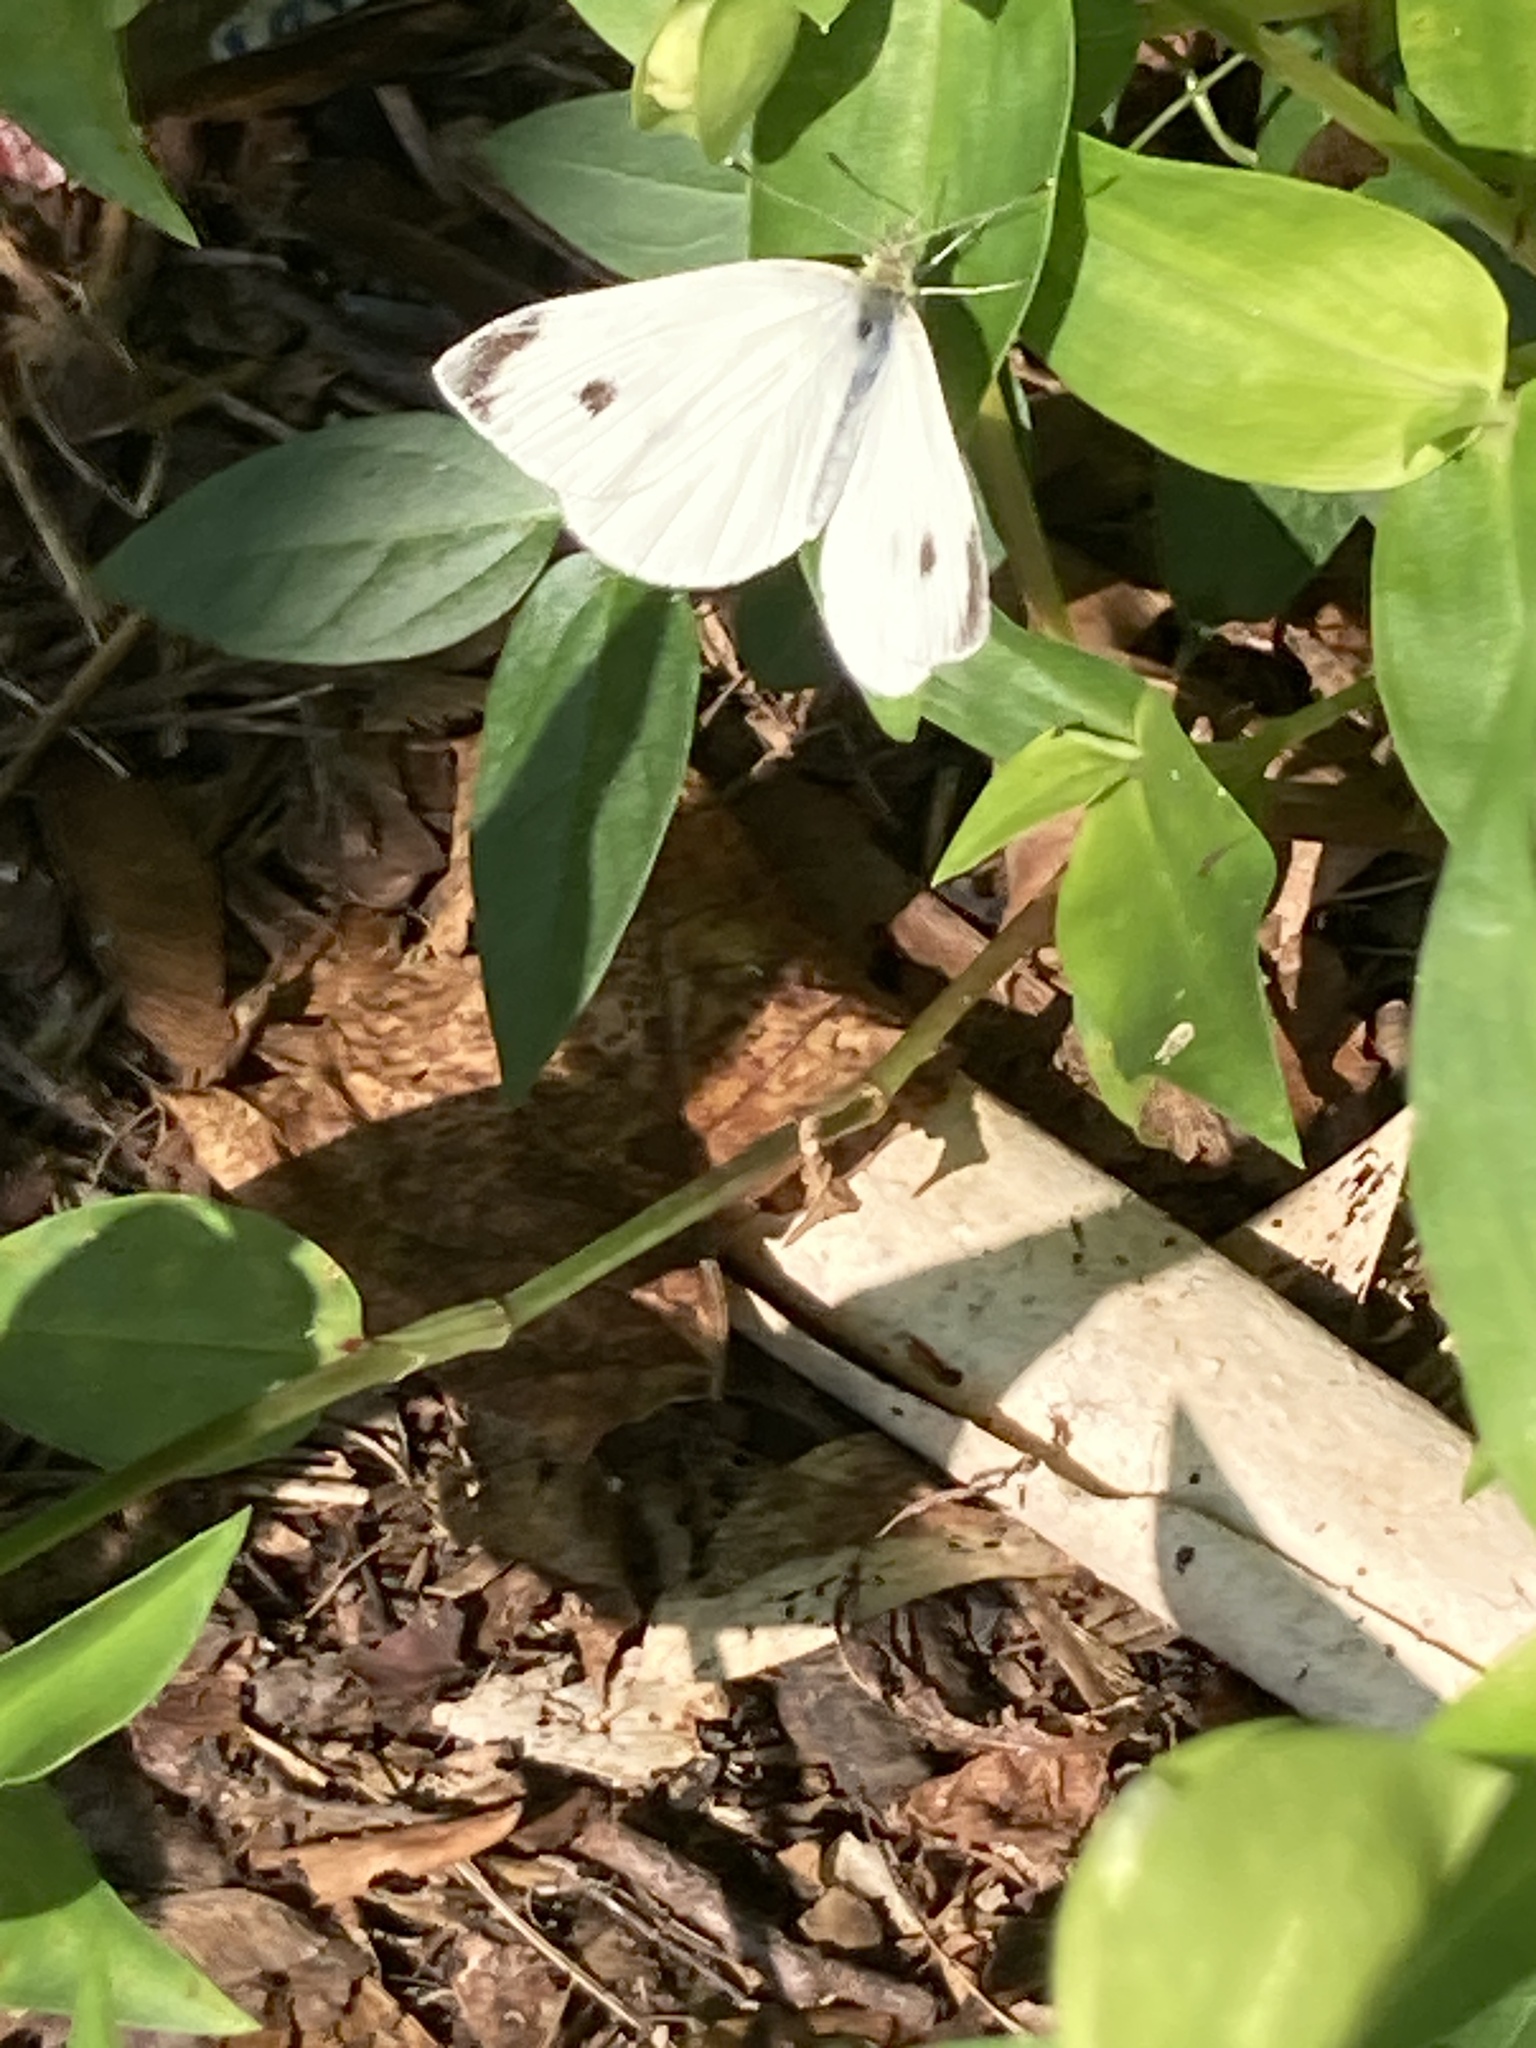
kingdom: Animalia
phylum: Arthropoda
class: Insecta
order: Lepidoptera
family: Pieridae
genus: Pieris
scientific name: Pieris rapae
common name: Small white
